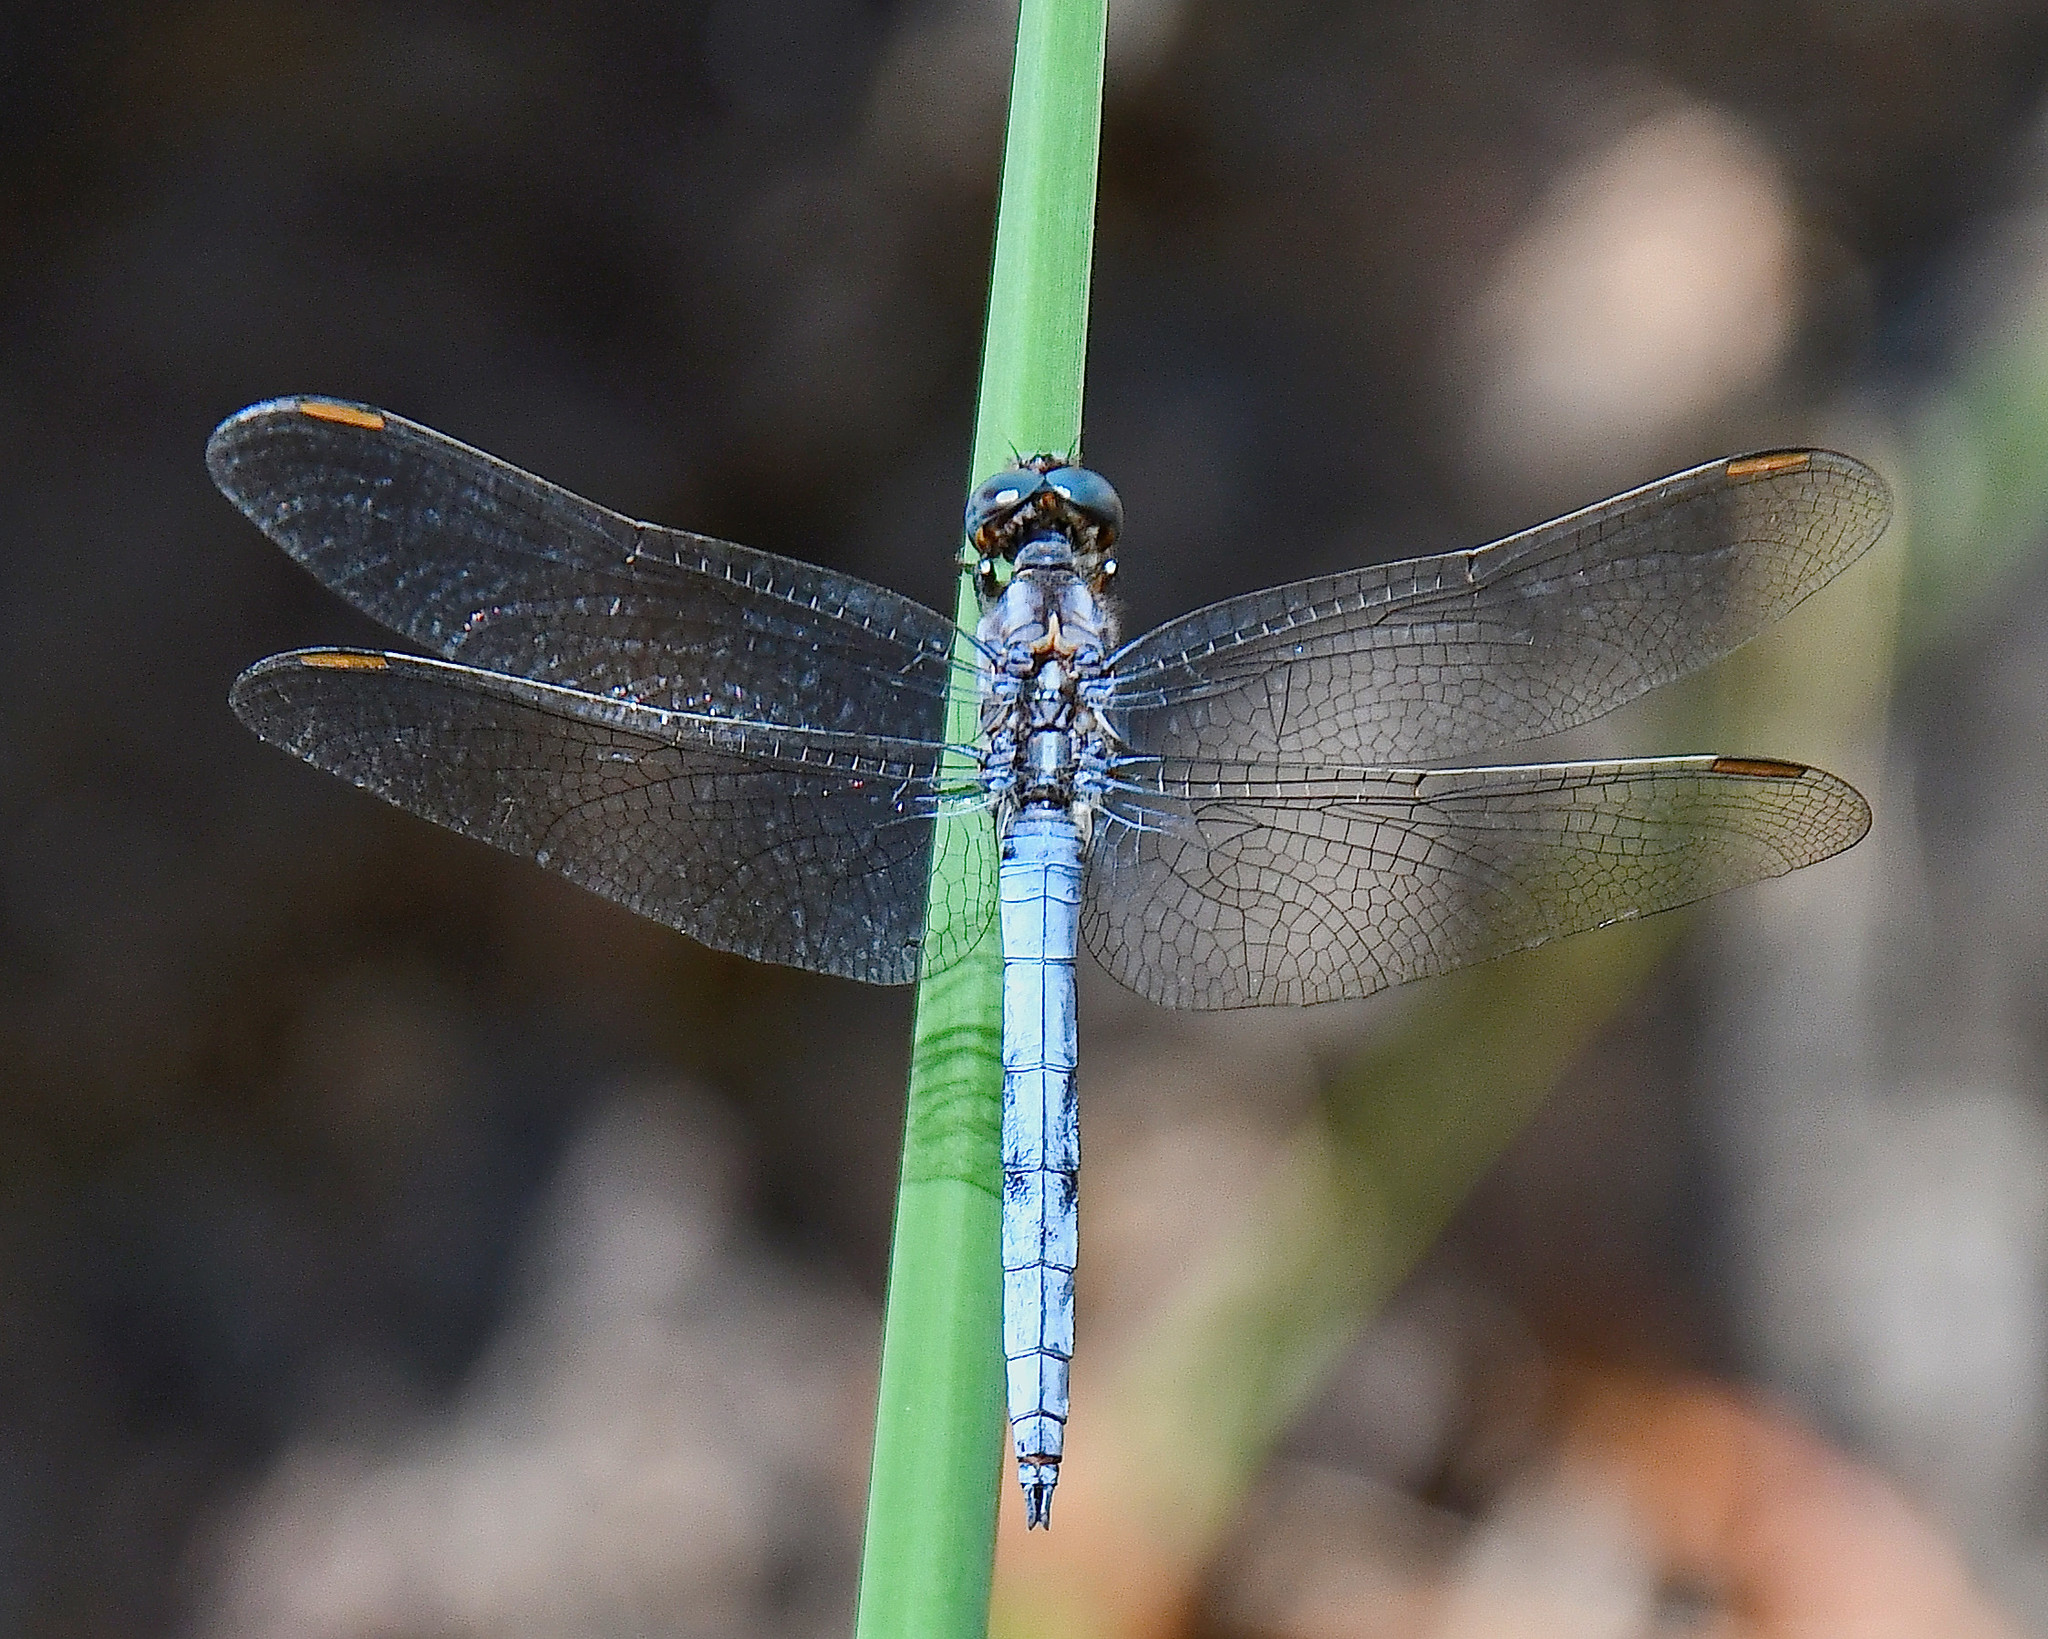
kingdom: Animalia
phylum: Arthropoda
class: Insecta
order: Odonata
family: Libellulidae
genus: Orthetrum
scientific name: Orthetrum coerulescens
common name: Keeled skimmer
